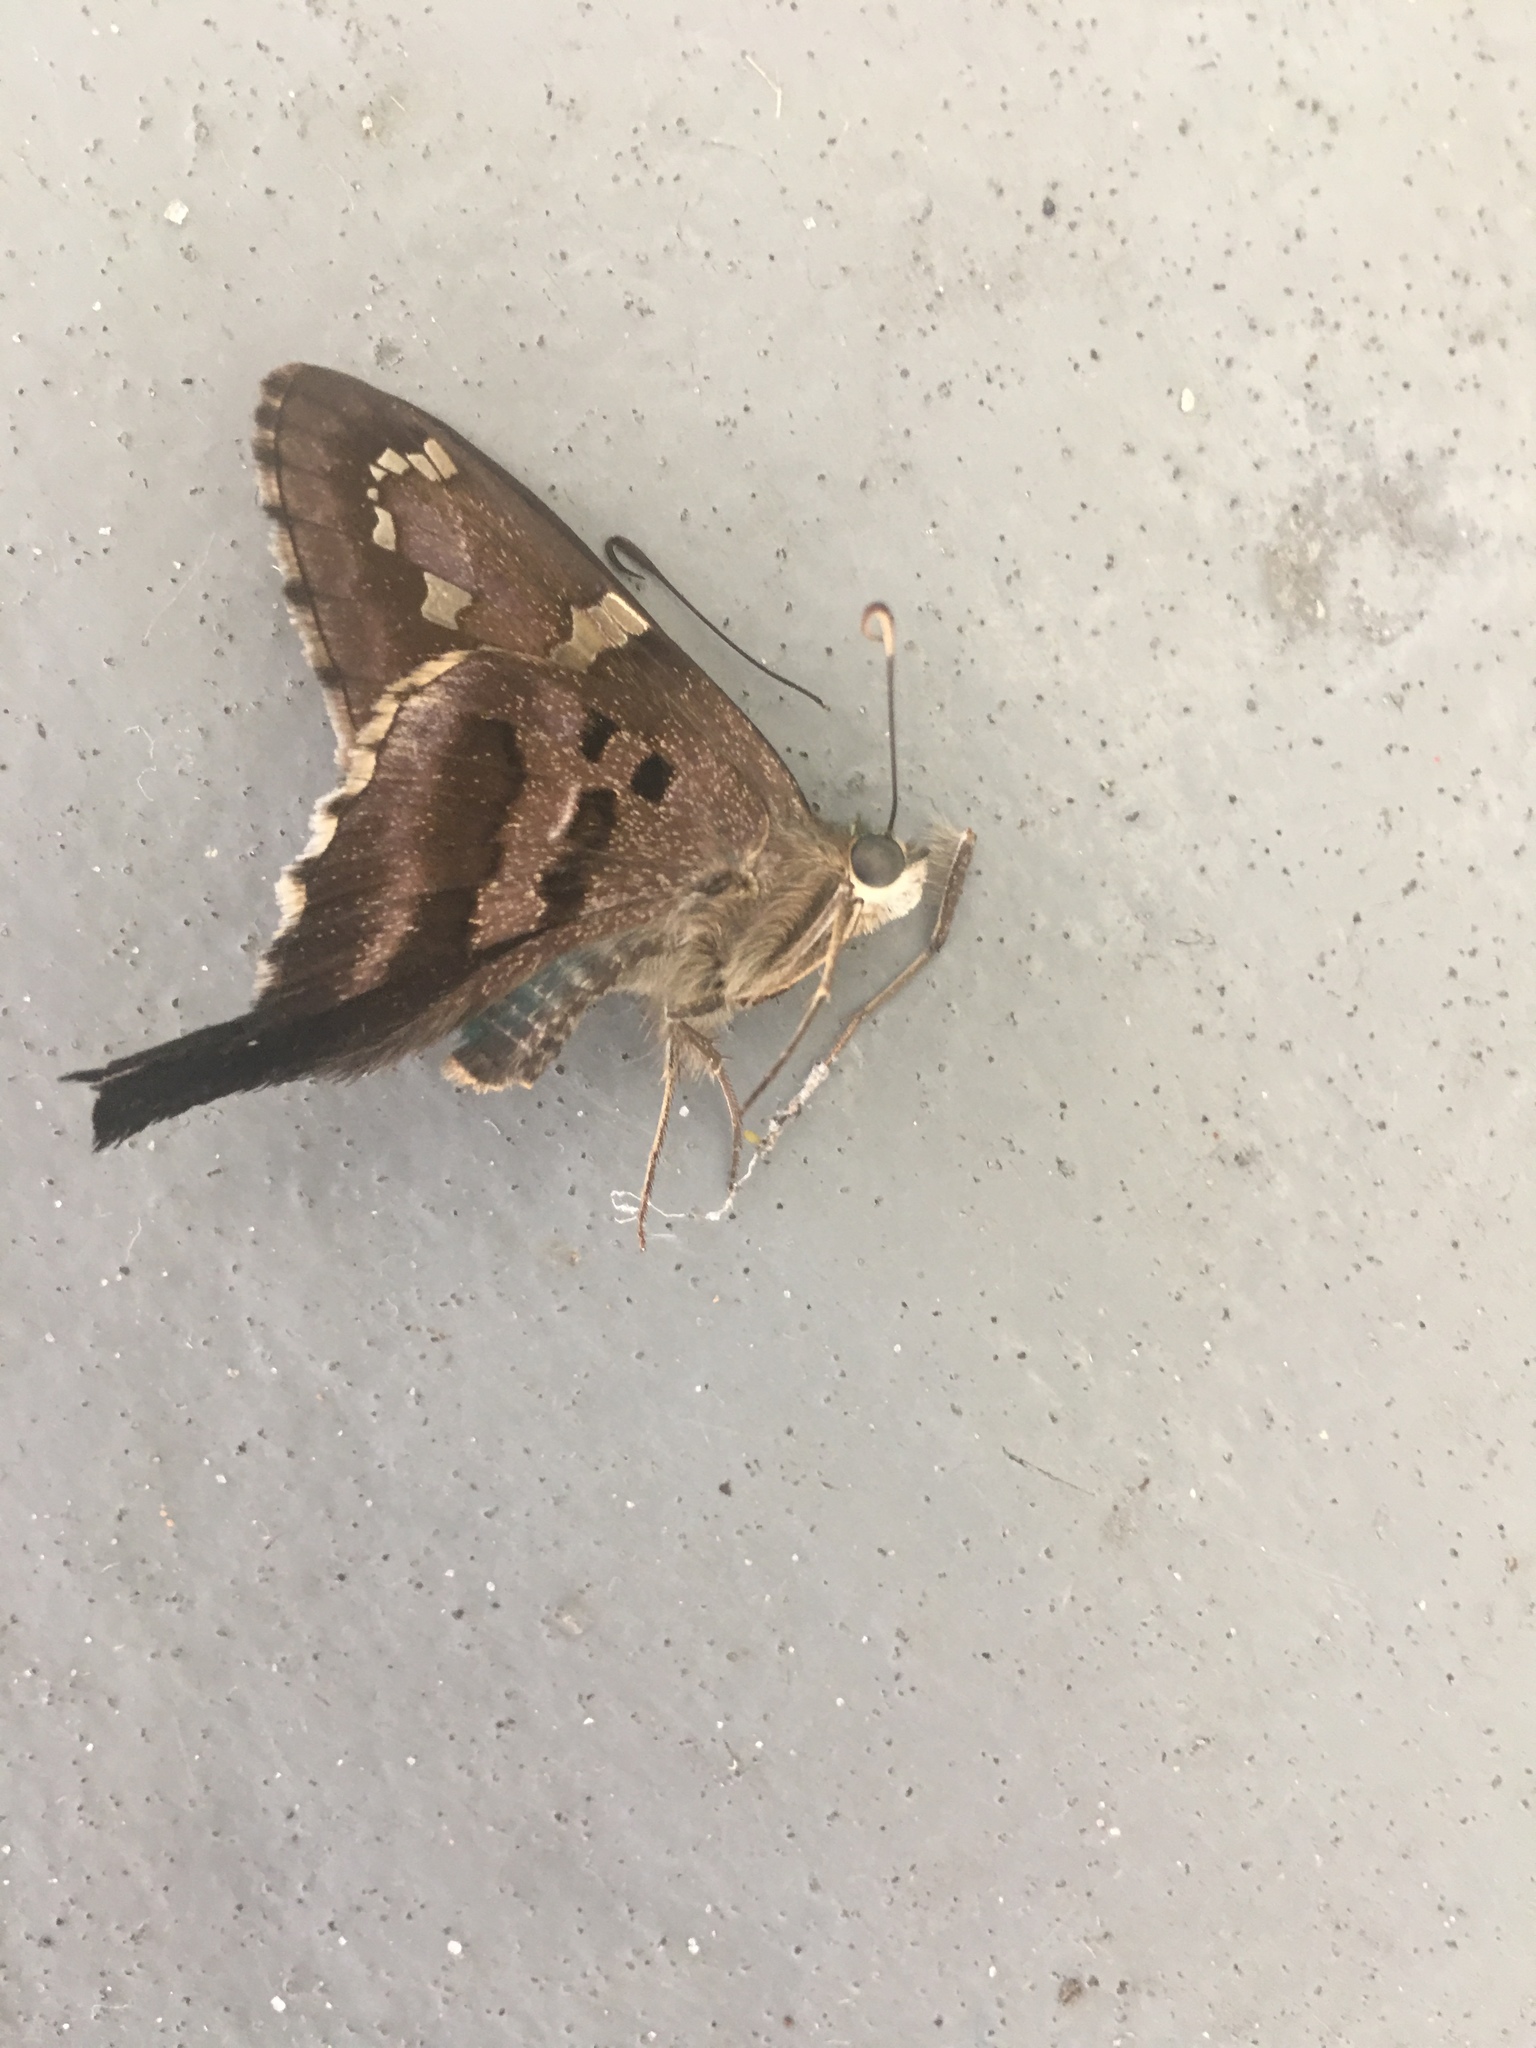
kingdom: Animalia
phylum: Arthropoda
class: Insecta
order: Lepidoptera
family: Hesperiidae
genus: Urbanus
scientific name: Urbanus proteus
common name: Long-tailed skipper
